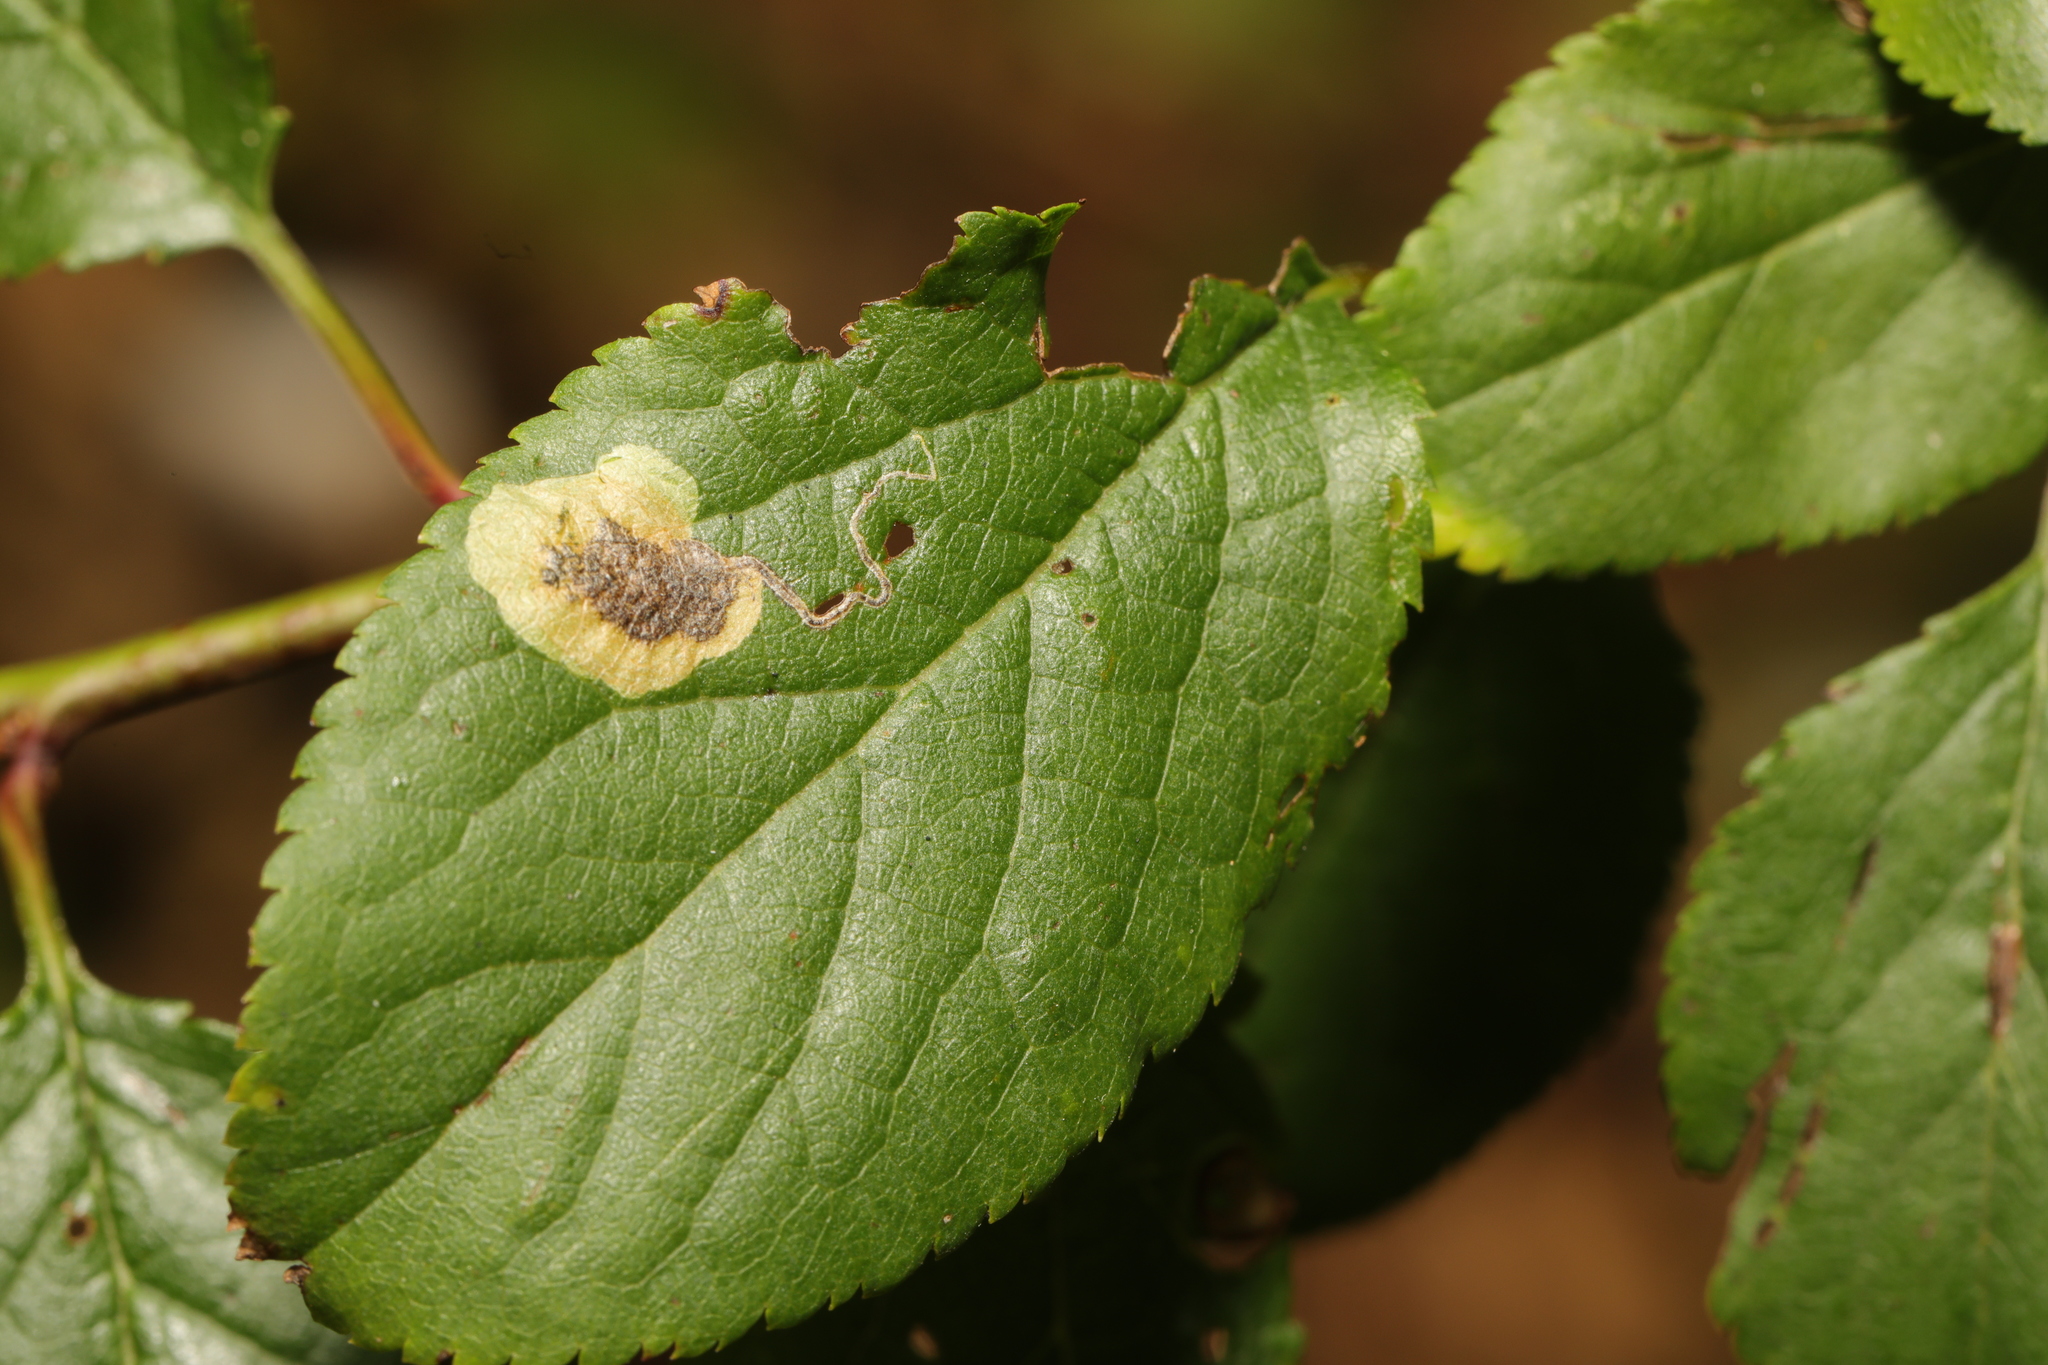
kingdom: Animalia
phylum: Arthropoda
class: Insecta
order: Lepidoptera
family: Nepticulidae
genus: Stigmella
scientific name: Stigmella plagicolella
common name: Scrubland pigmy
